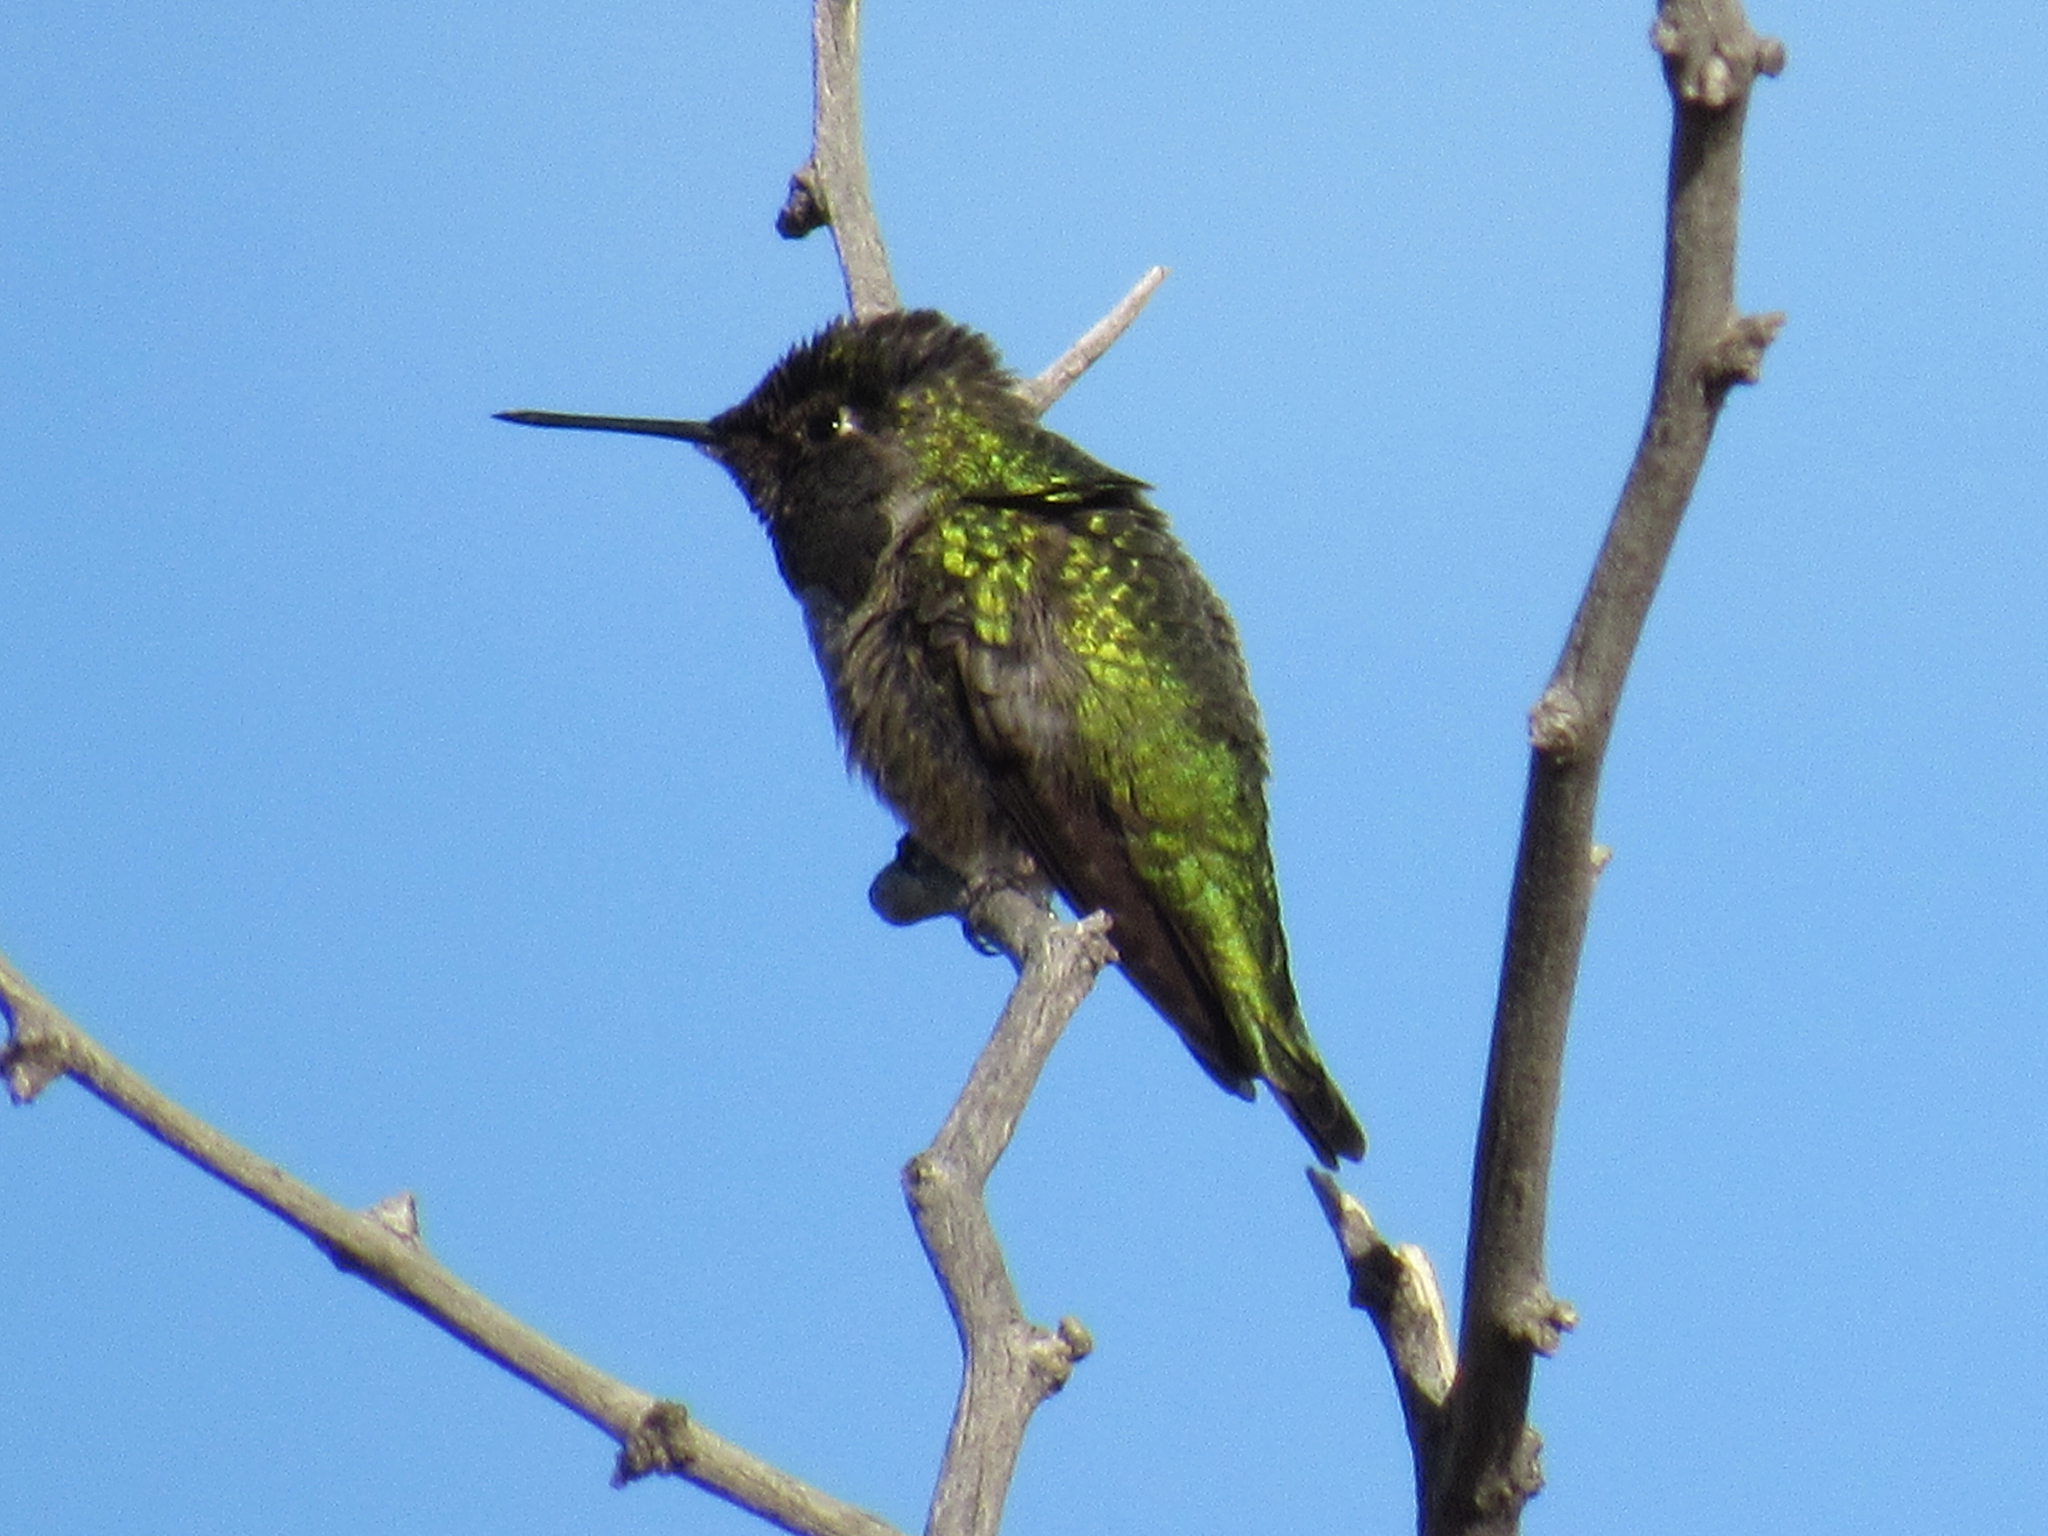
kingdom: Animalia
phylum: Chordata
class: Aves
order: Apodiformes
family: Trochilidae
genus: Calypte
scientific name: Calypte anna
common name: Anna's hummingbird
